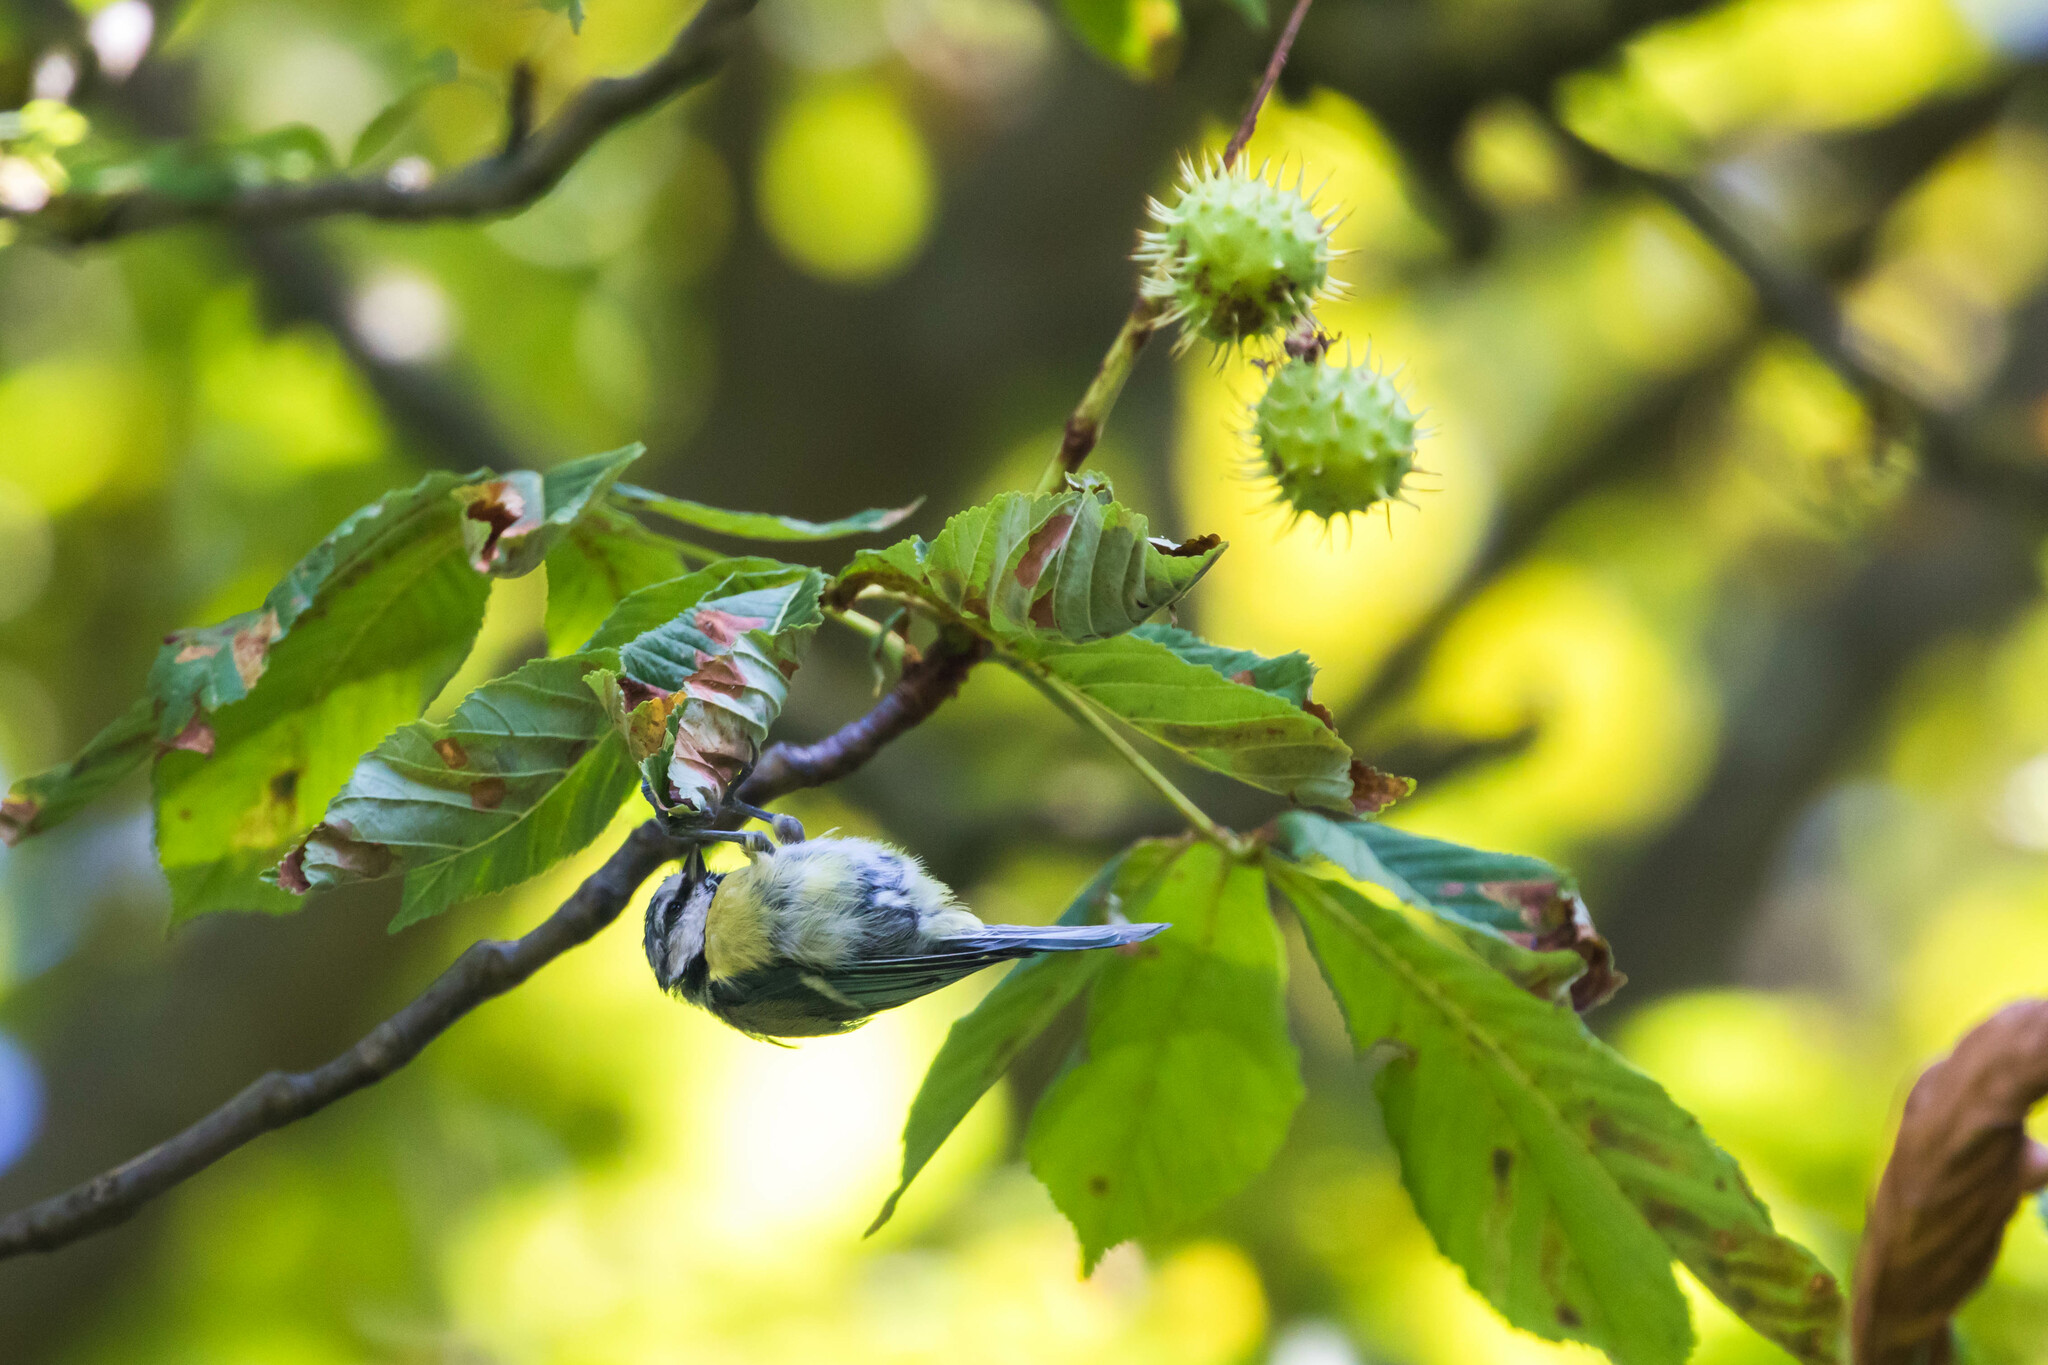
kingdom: Animalia
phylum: Chordata
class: Aves
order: Passeriformes
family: Paridae
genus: Cyanistes
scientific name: Cyanistes caeruleus
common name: Eurasian blue tit
